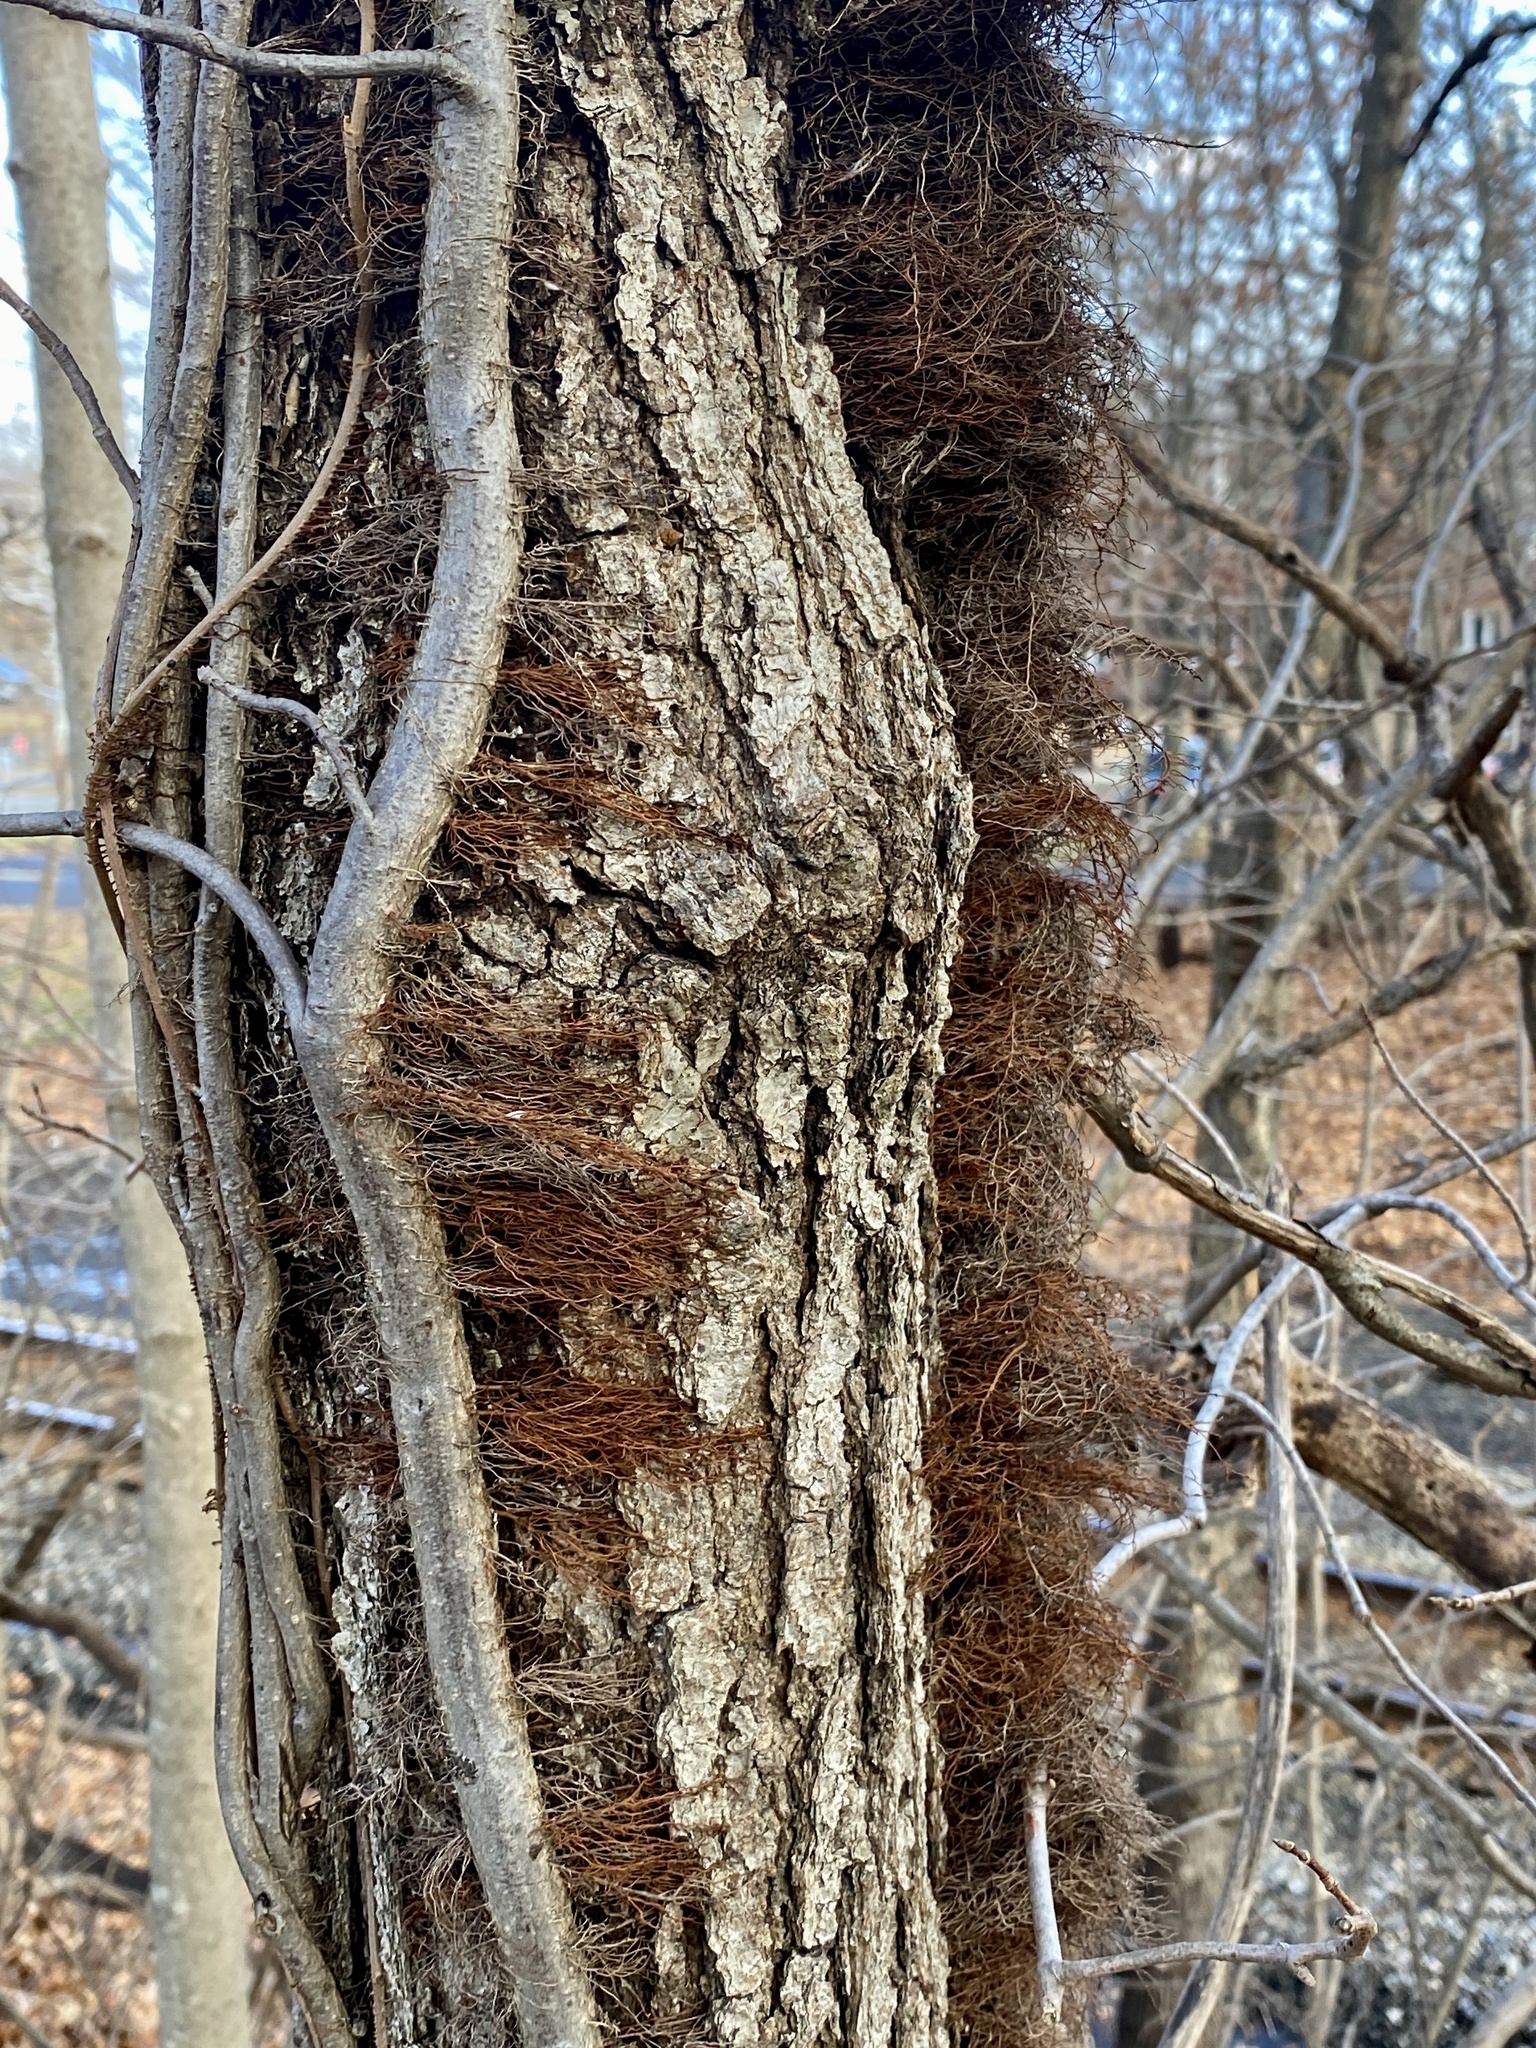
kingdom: Plantae
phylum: Tracheophyta
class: Magnoliopsida
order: Sapindales
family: Anacardiaceae
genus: Toxicodendron
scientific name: Toxicodendron radicans
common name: Poison ivy
